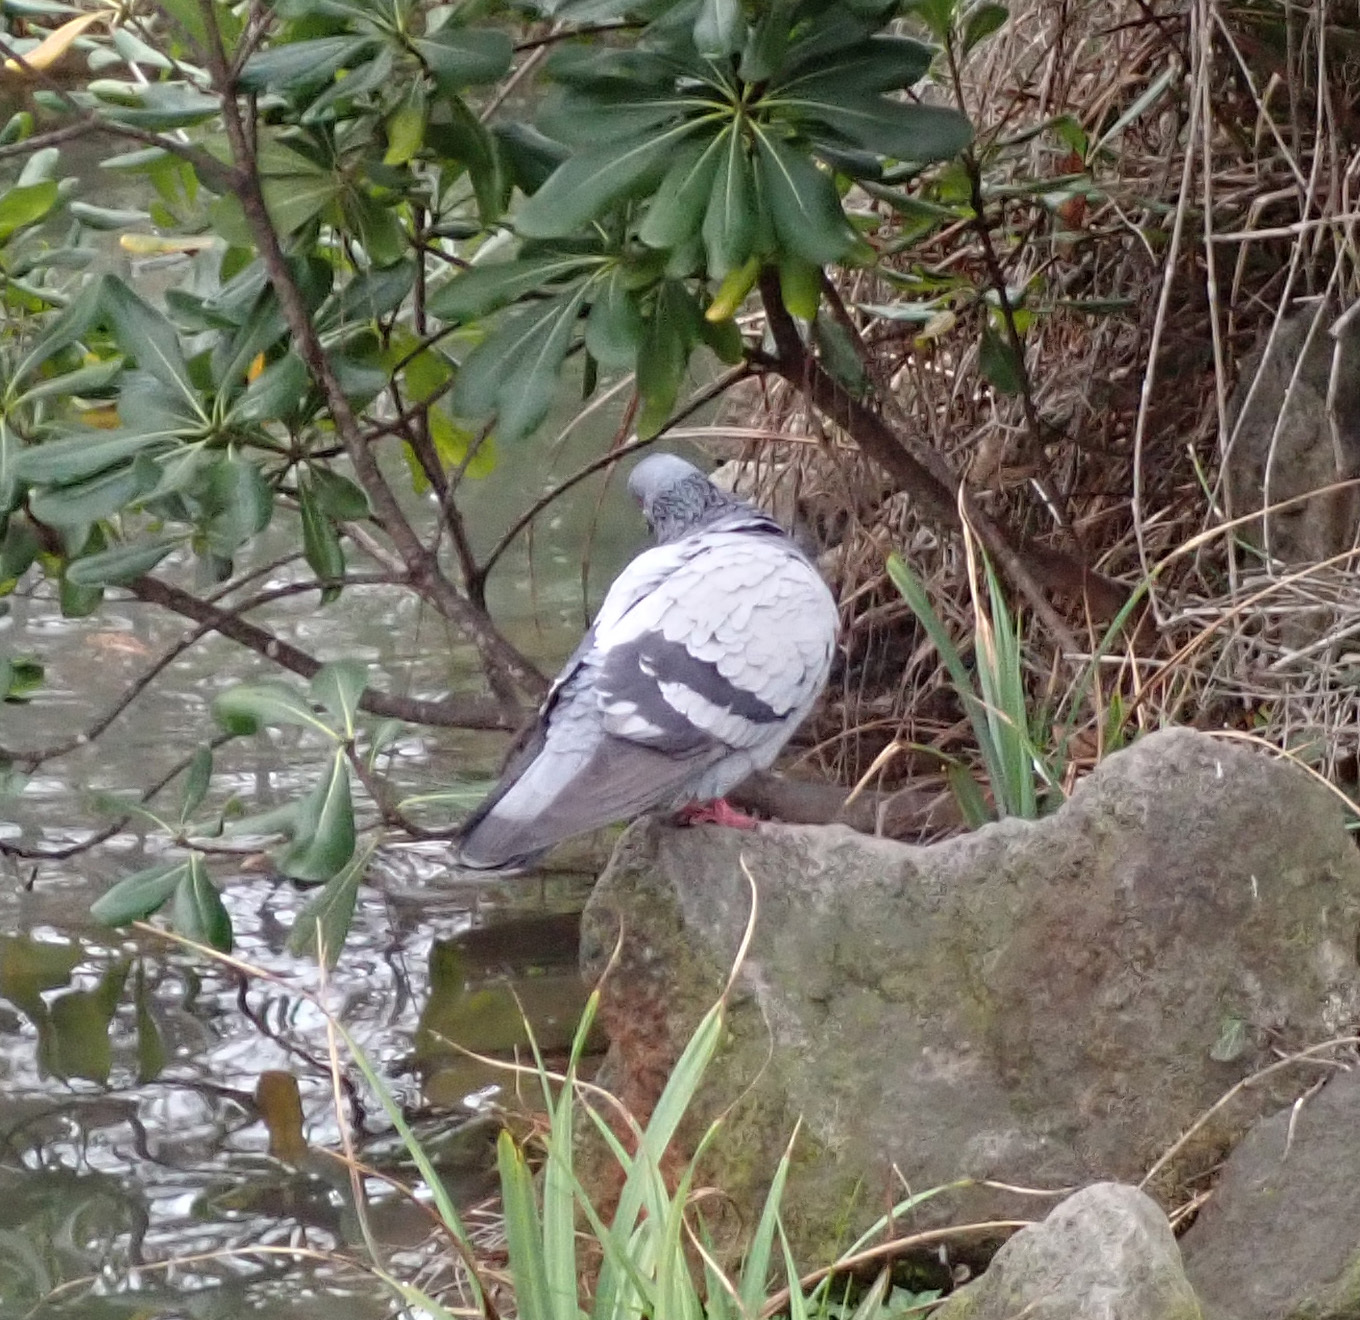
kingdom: Animalia
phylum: Chordata
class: Aves
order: Columbiformes
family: Columbidae
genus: Columba
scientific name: Columba livia
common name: Rock pigeon
